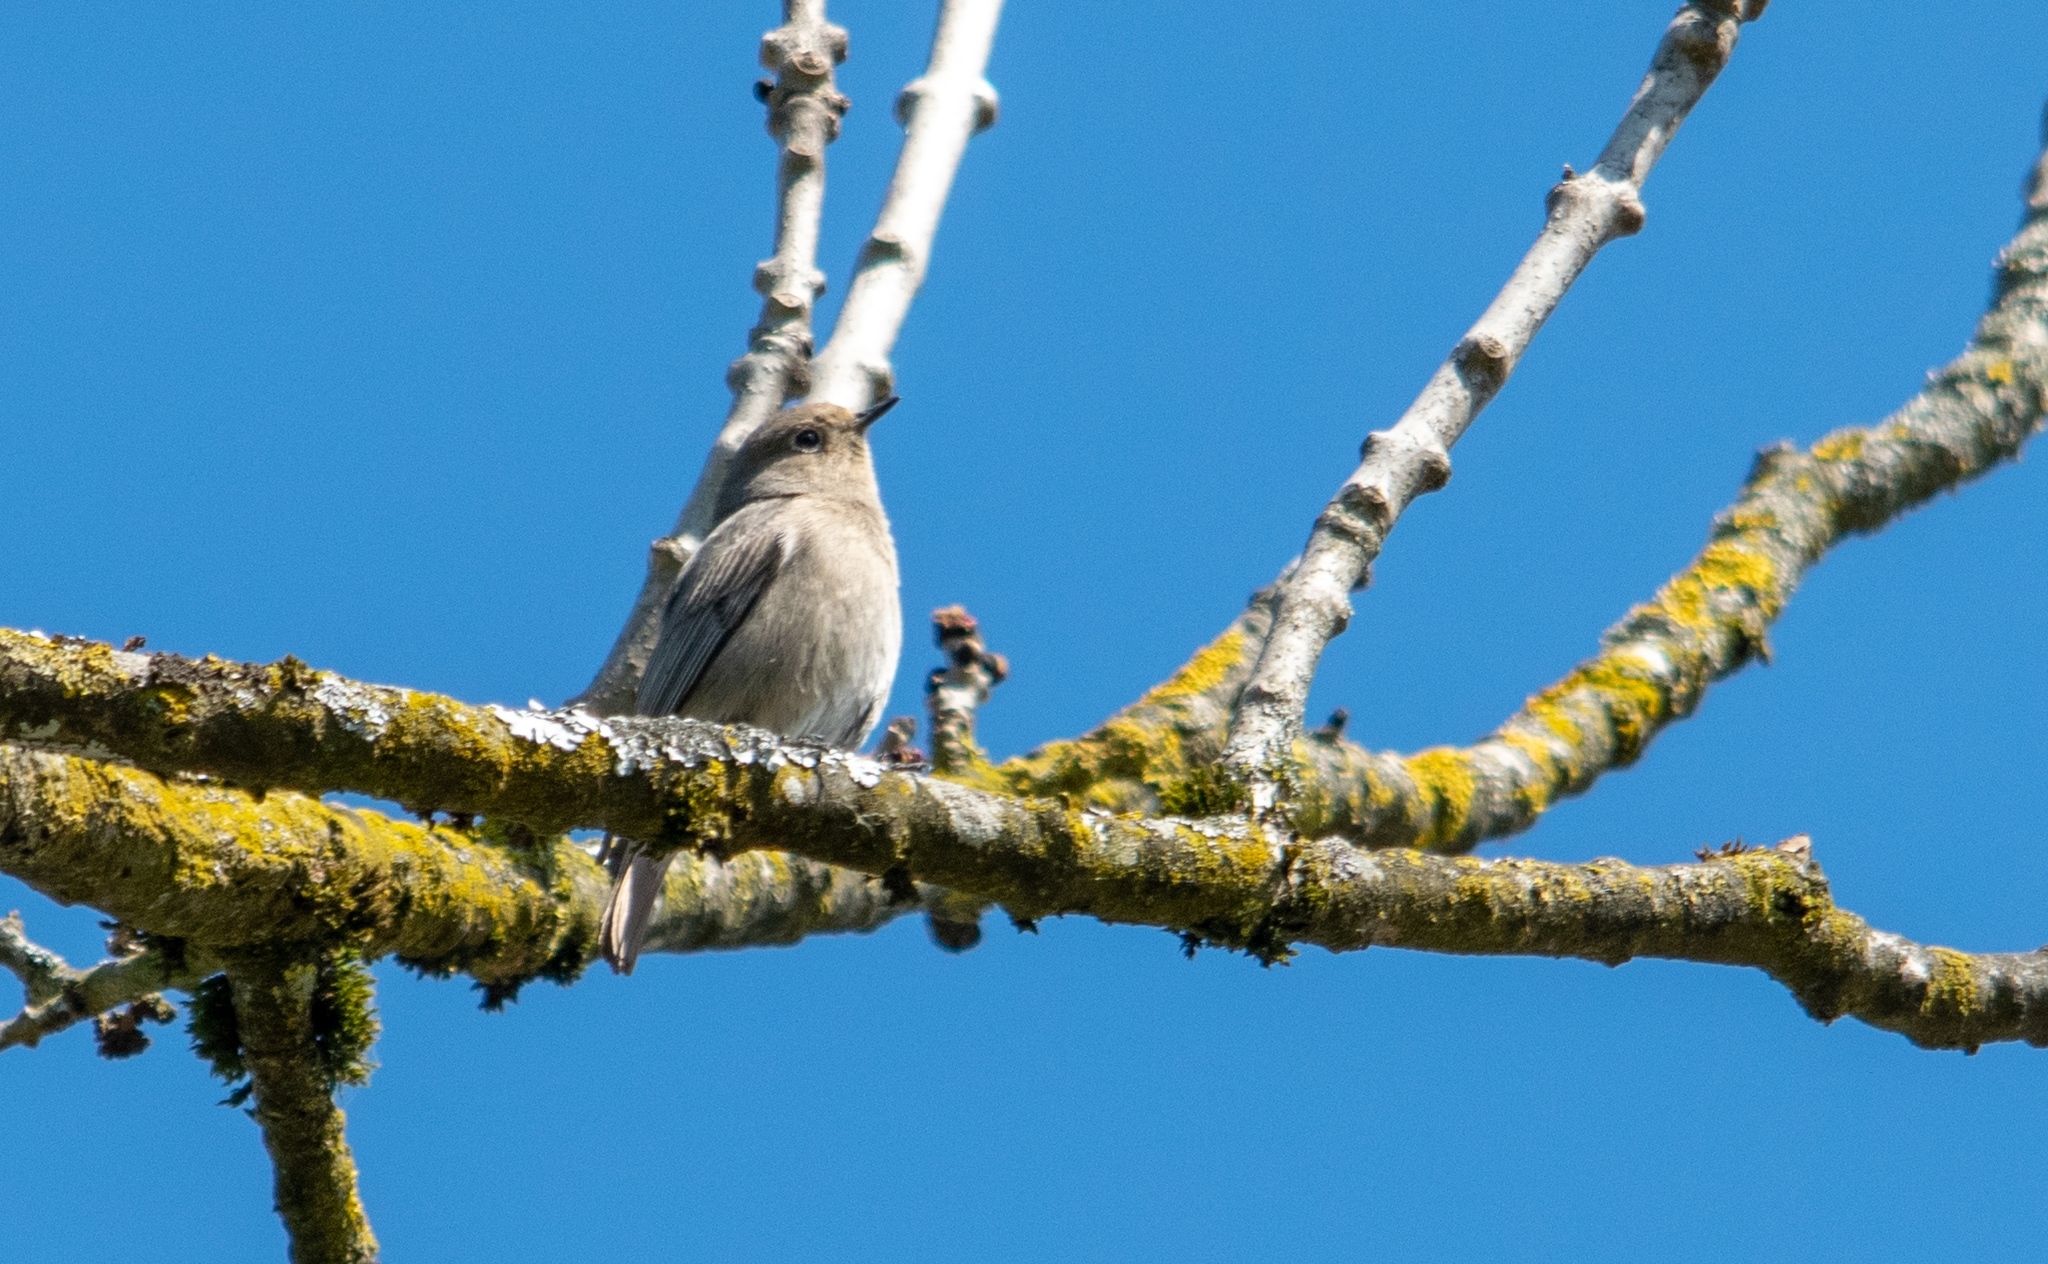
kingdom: Animalia
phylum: Chordata
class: Aves
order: Passeriformes
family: Muscicapidae
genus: Phoenicurus
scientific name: Phoenicurus ochruros
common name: Black redstart
